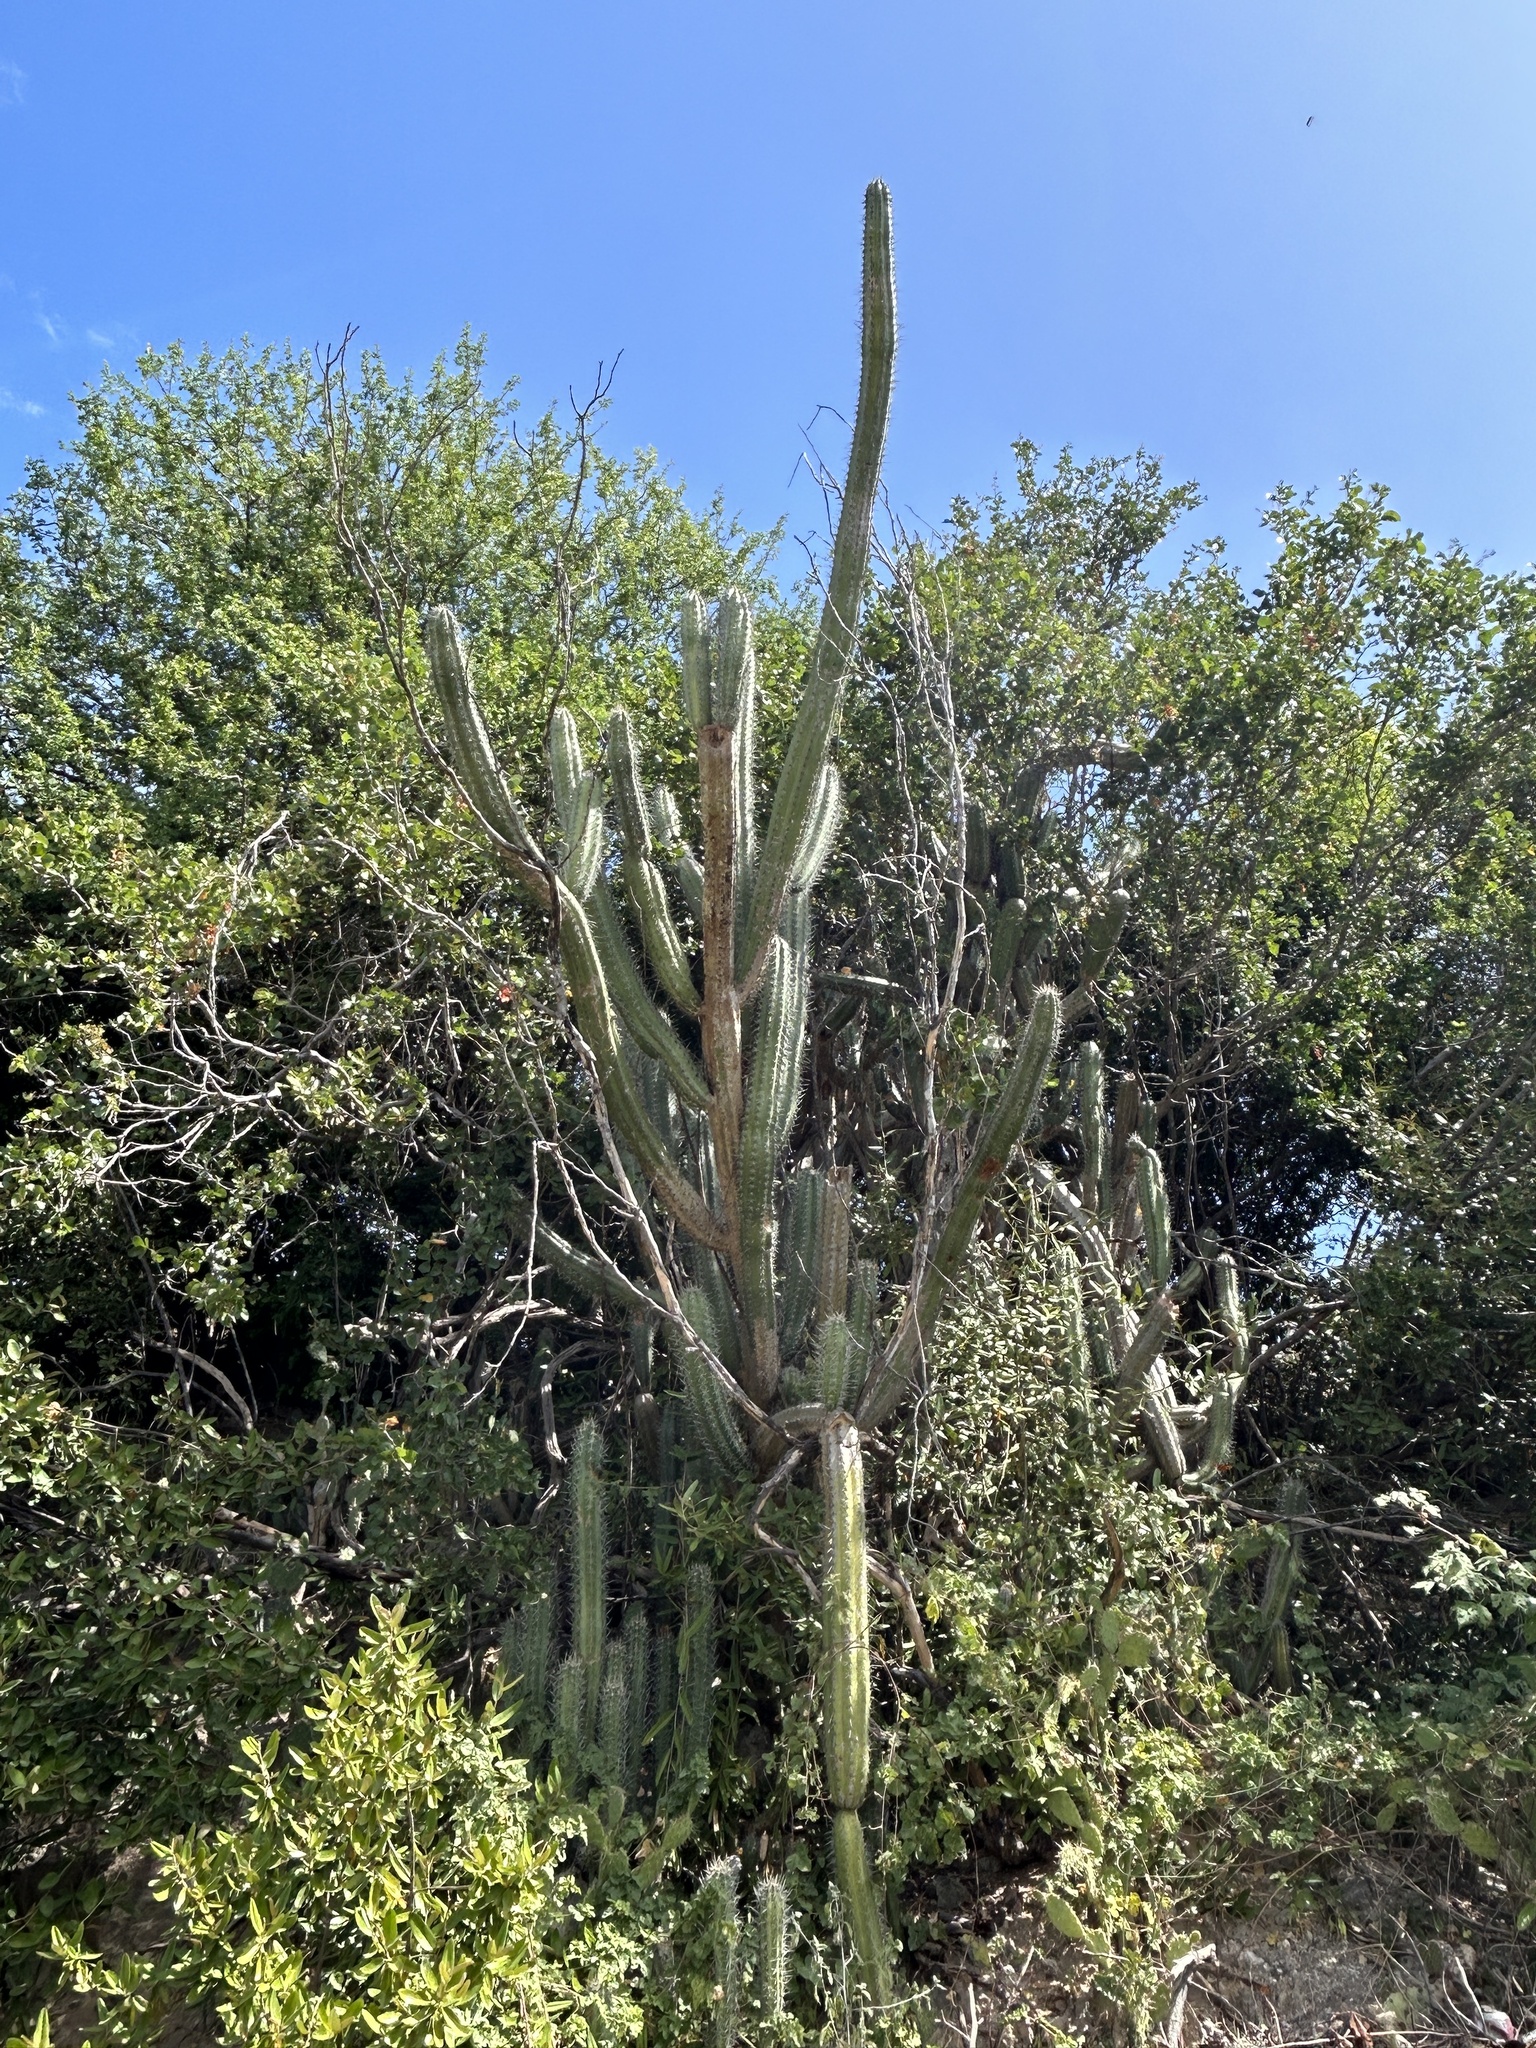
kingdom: Plantae
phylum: Tracheophyta
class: Magnoliopsida
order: Caryophyllales
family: Cactaceae
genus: Stenocereus
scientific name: Stenocereus griseus
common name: Tall candelabra cactus
